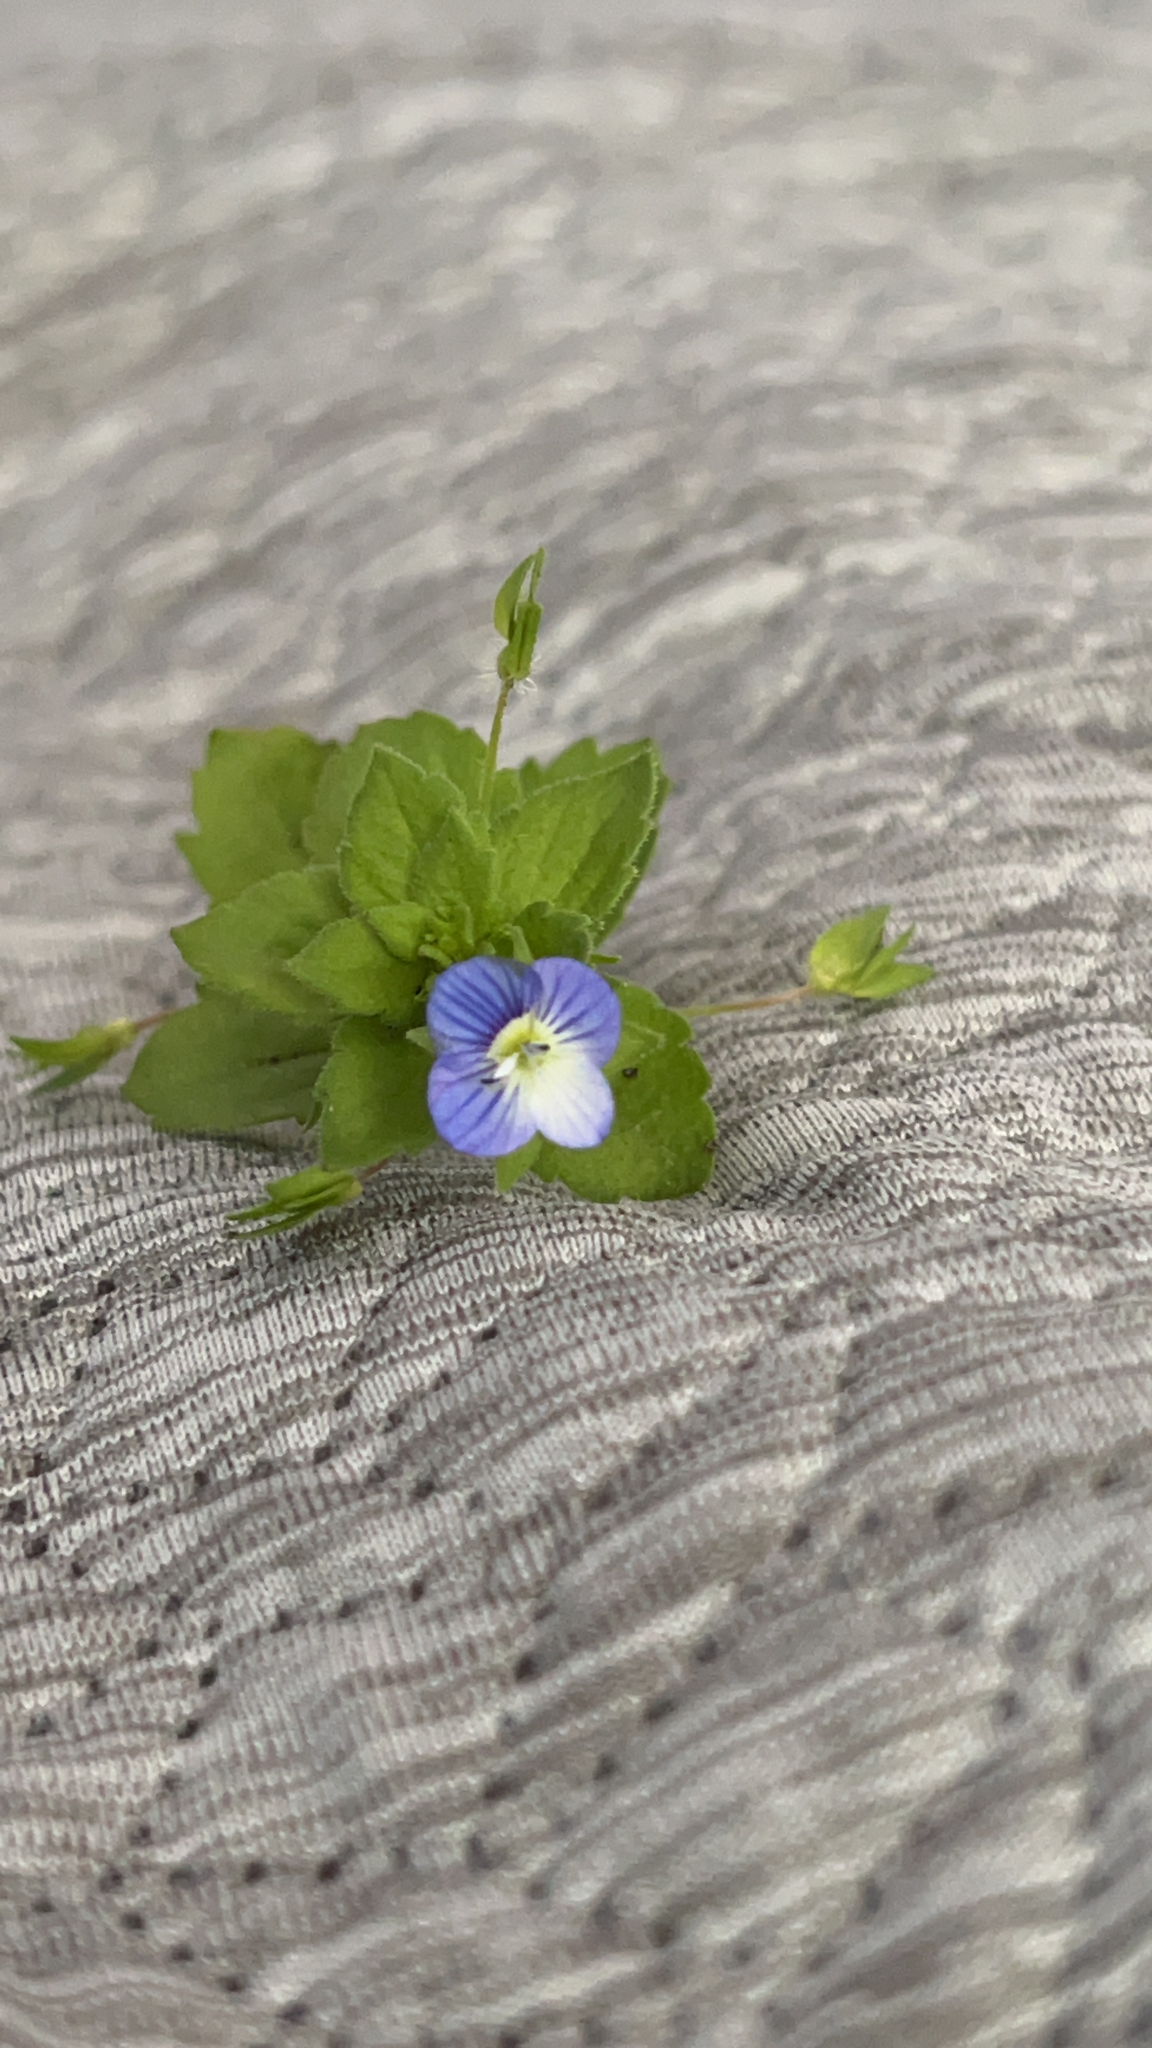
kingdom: Plantae
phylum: Tracheophyta
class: Magnoliopsida
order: Lamiales
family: Plantaginaceae
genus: Veronica
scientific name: Veronica persica
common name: Common field-speedwell
